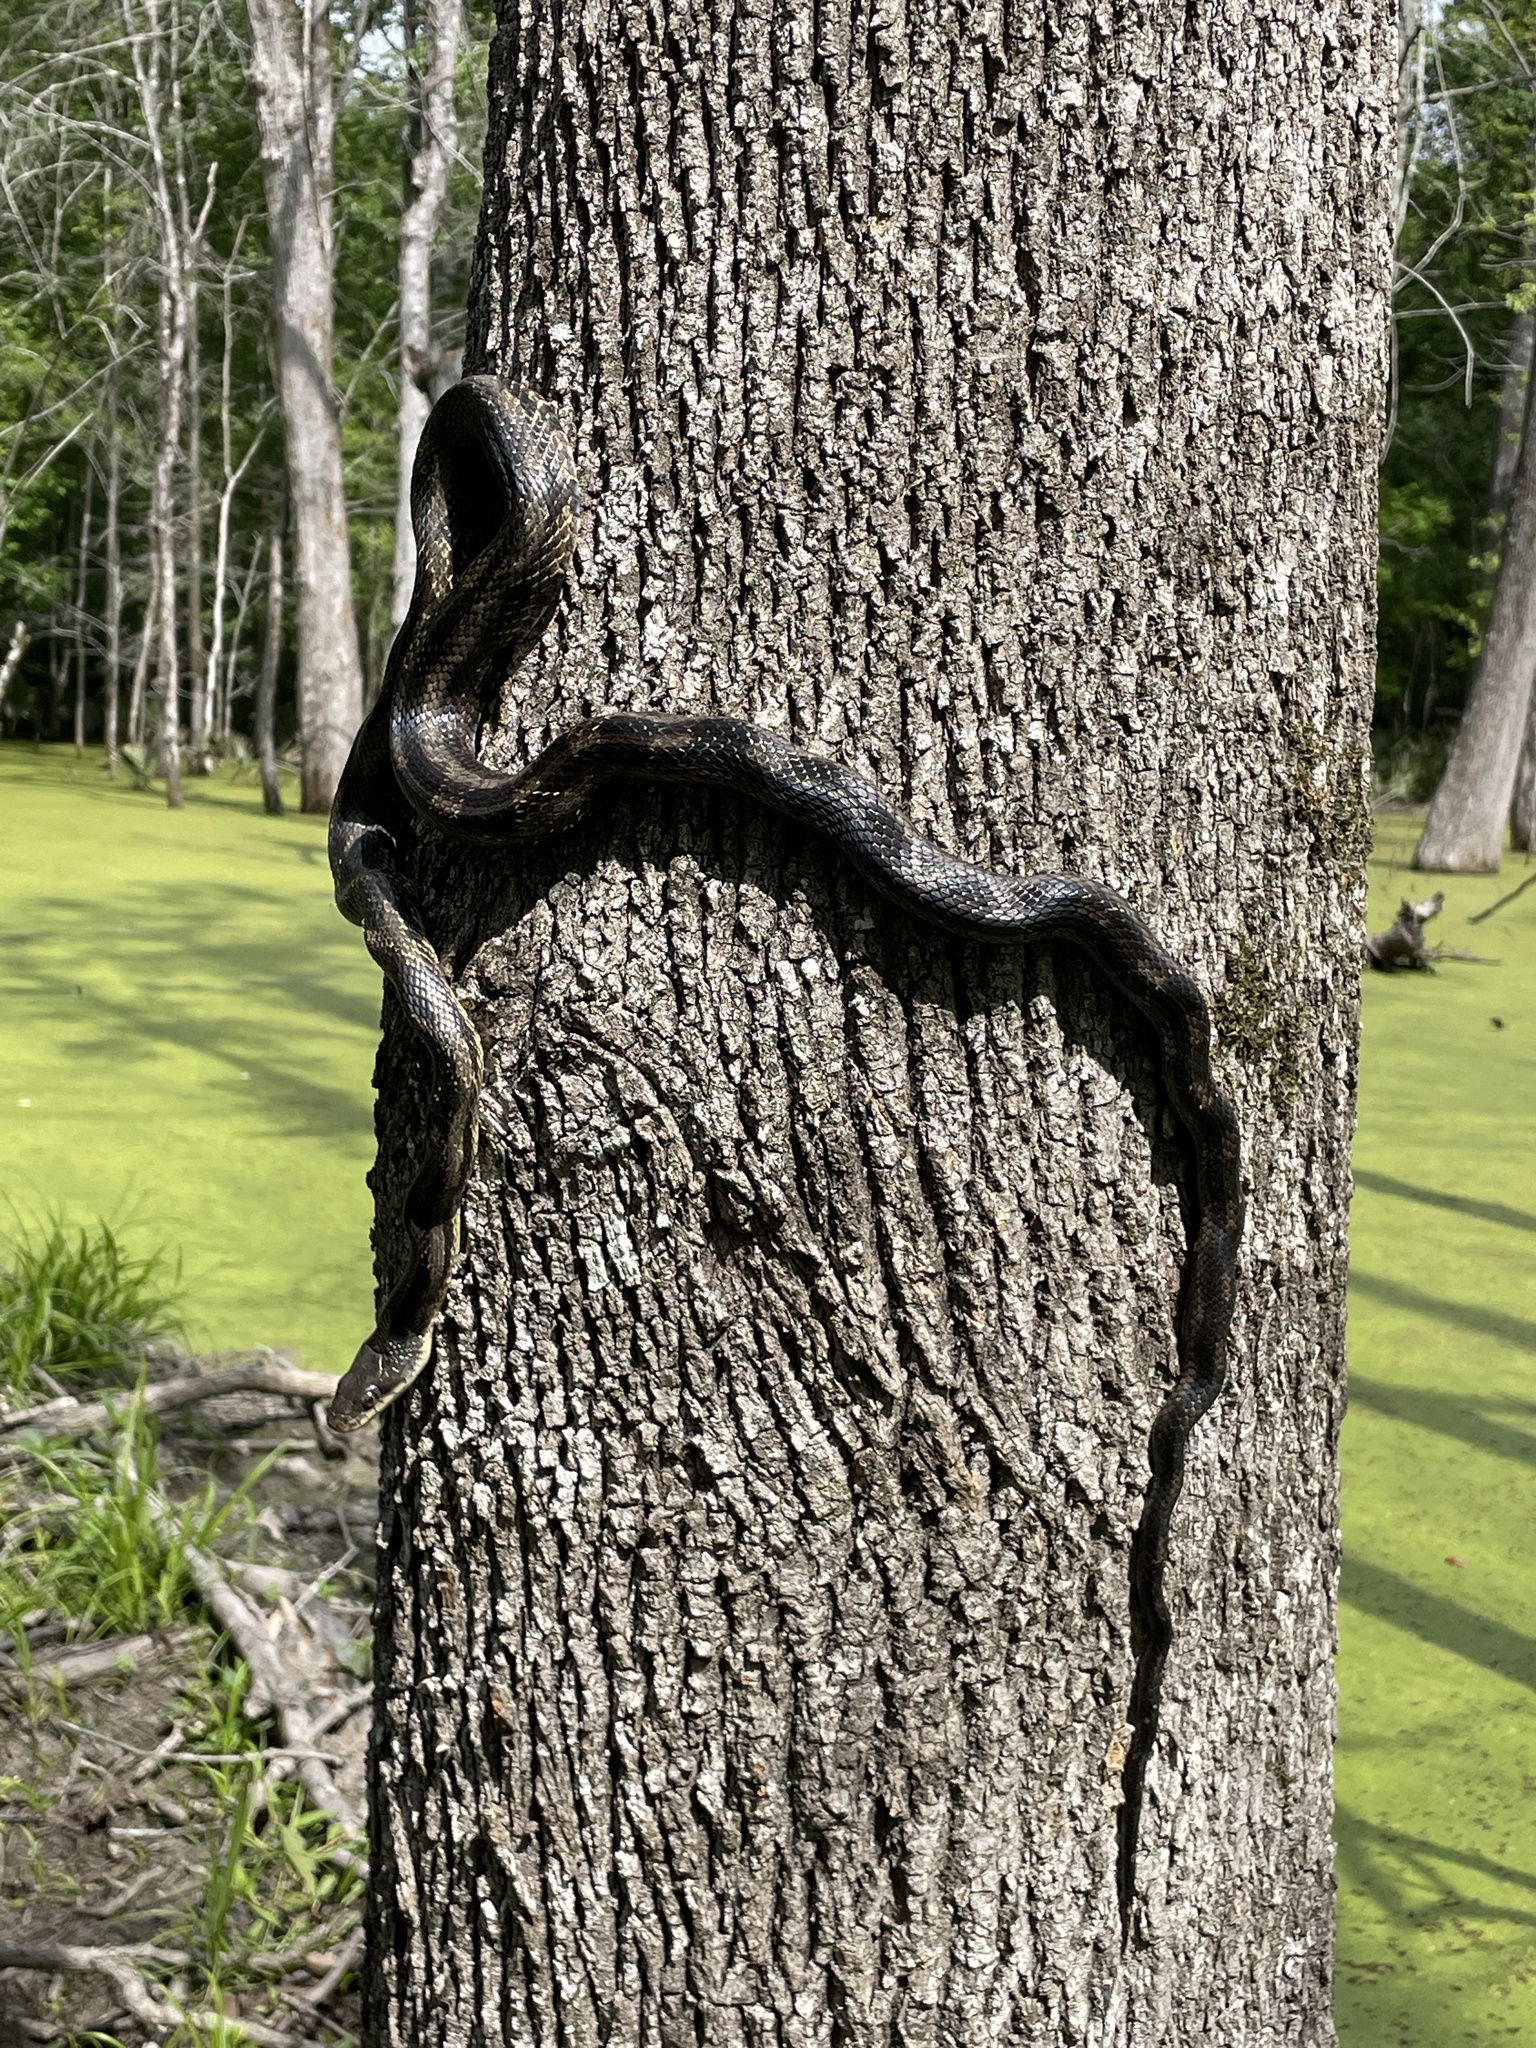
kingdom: Animalia
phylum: Chordata
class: Squamata
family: Colubridae
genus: Pantherophis
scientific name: Pantherophis obsoletus
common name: Black rat snake
